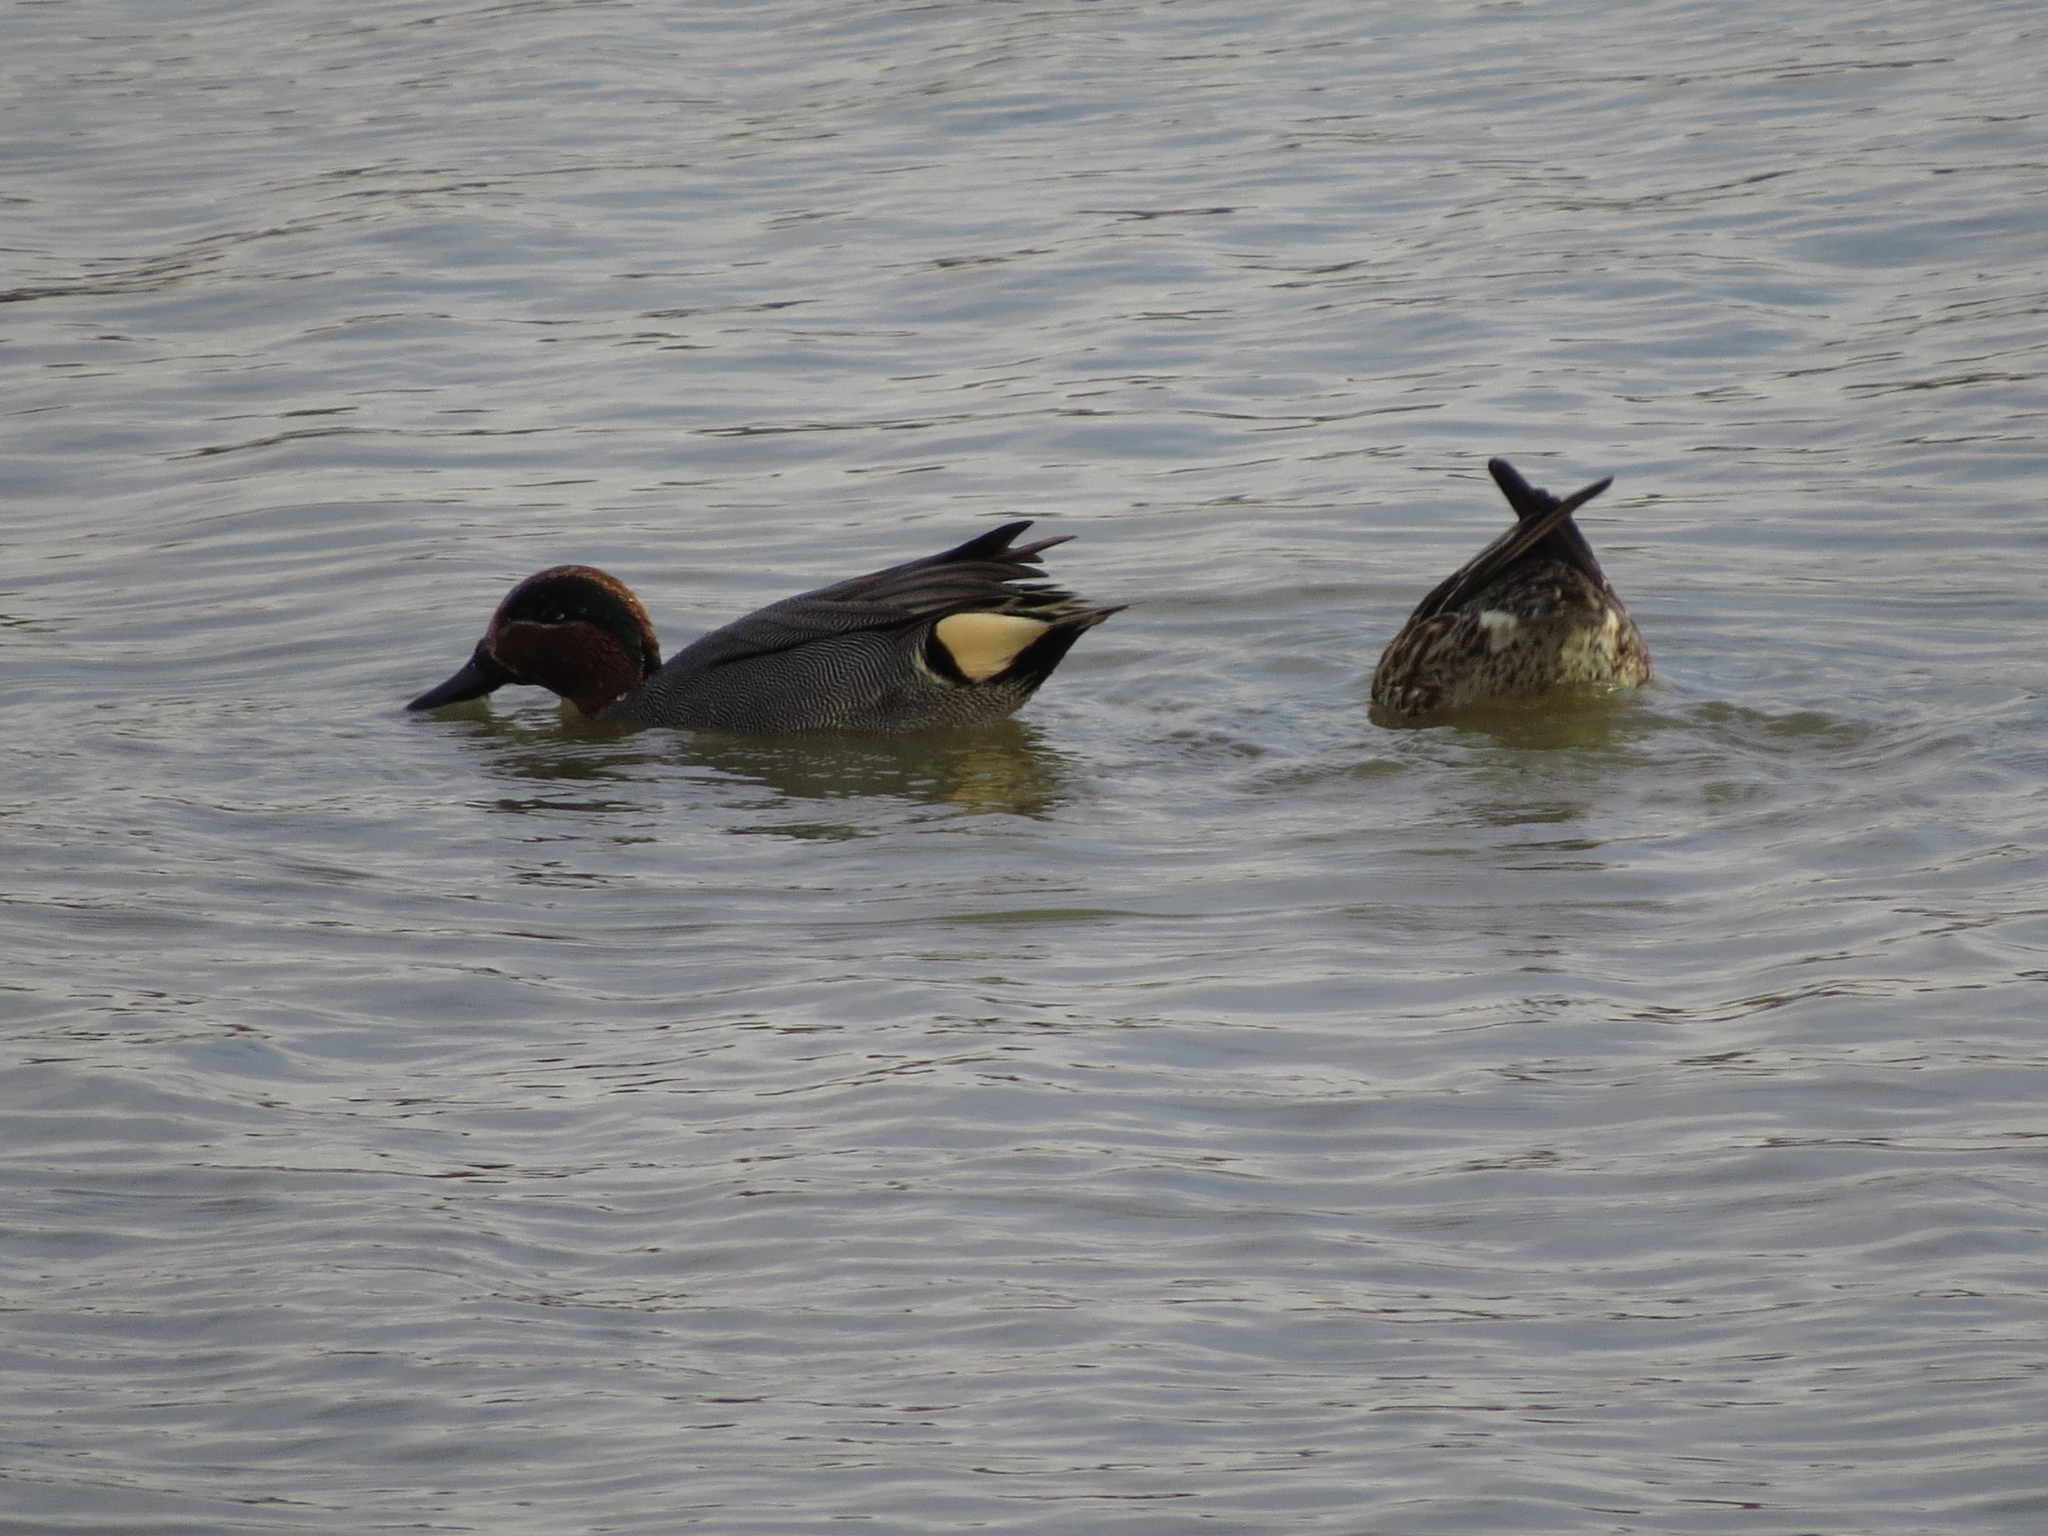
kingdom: Animalia
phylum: Chordata
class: Aves
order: Anseriformes
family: Anatidae
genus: Anas
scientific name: Anas crecca
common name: Eurasian teal
